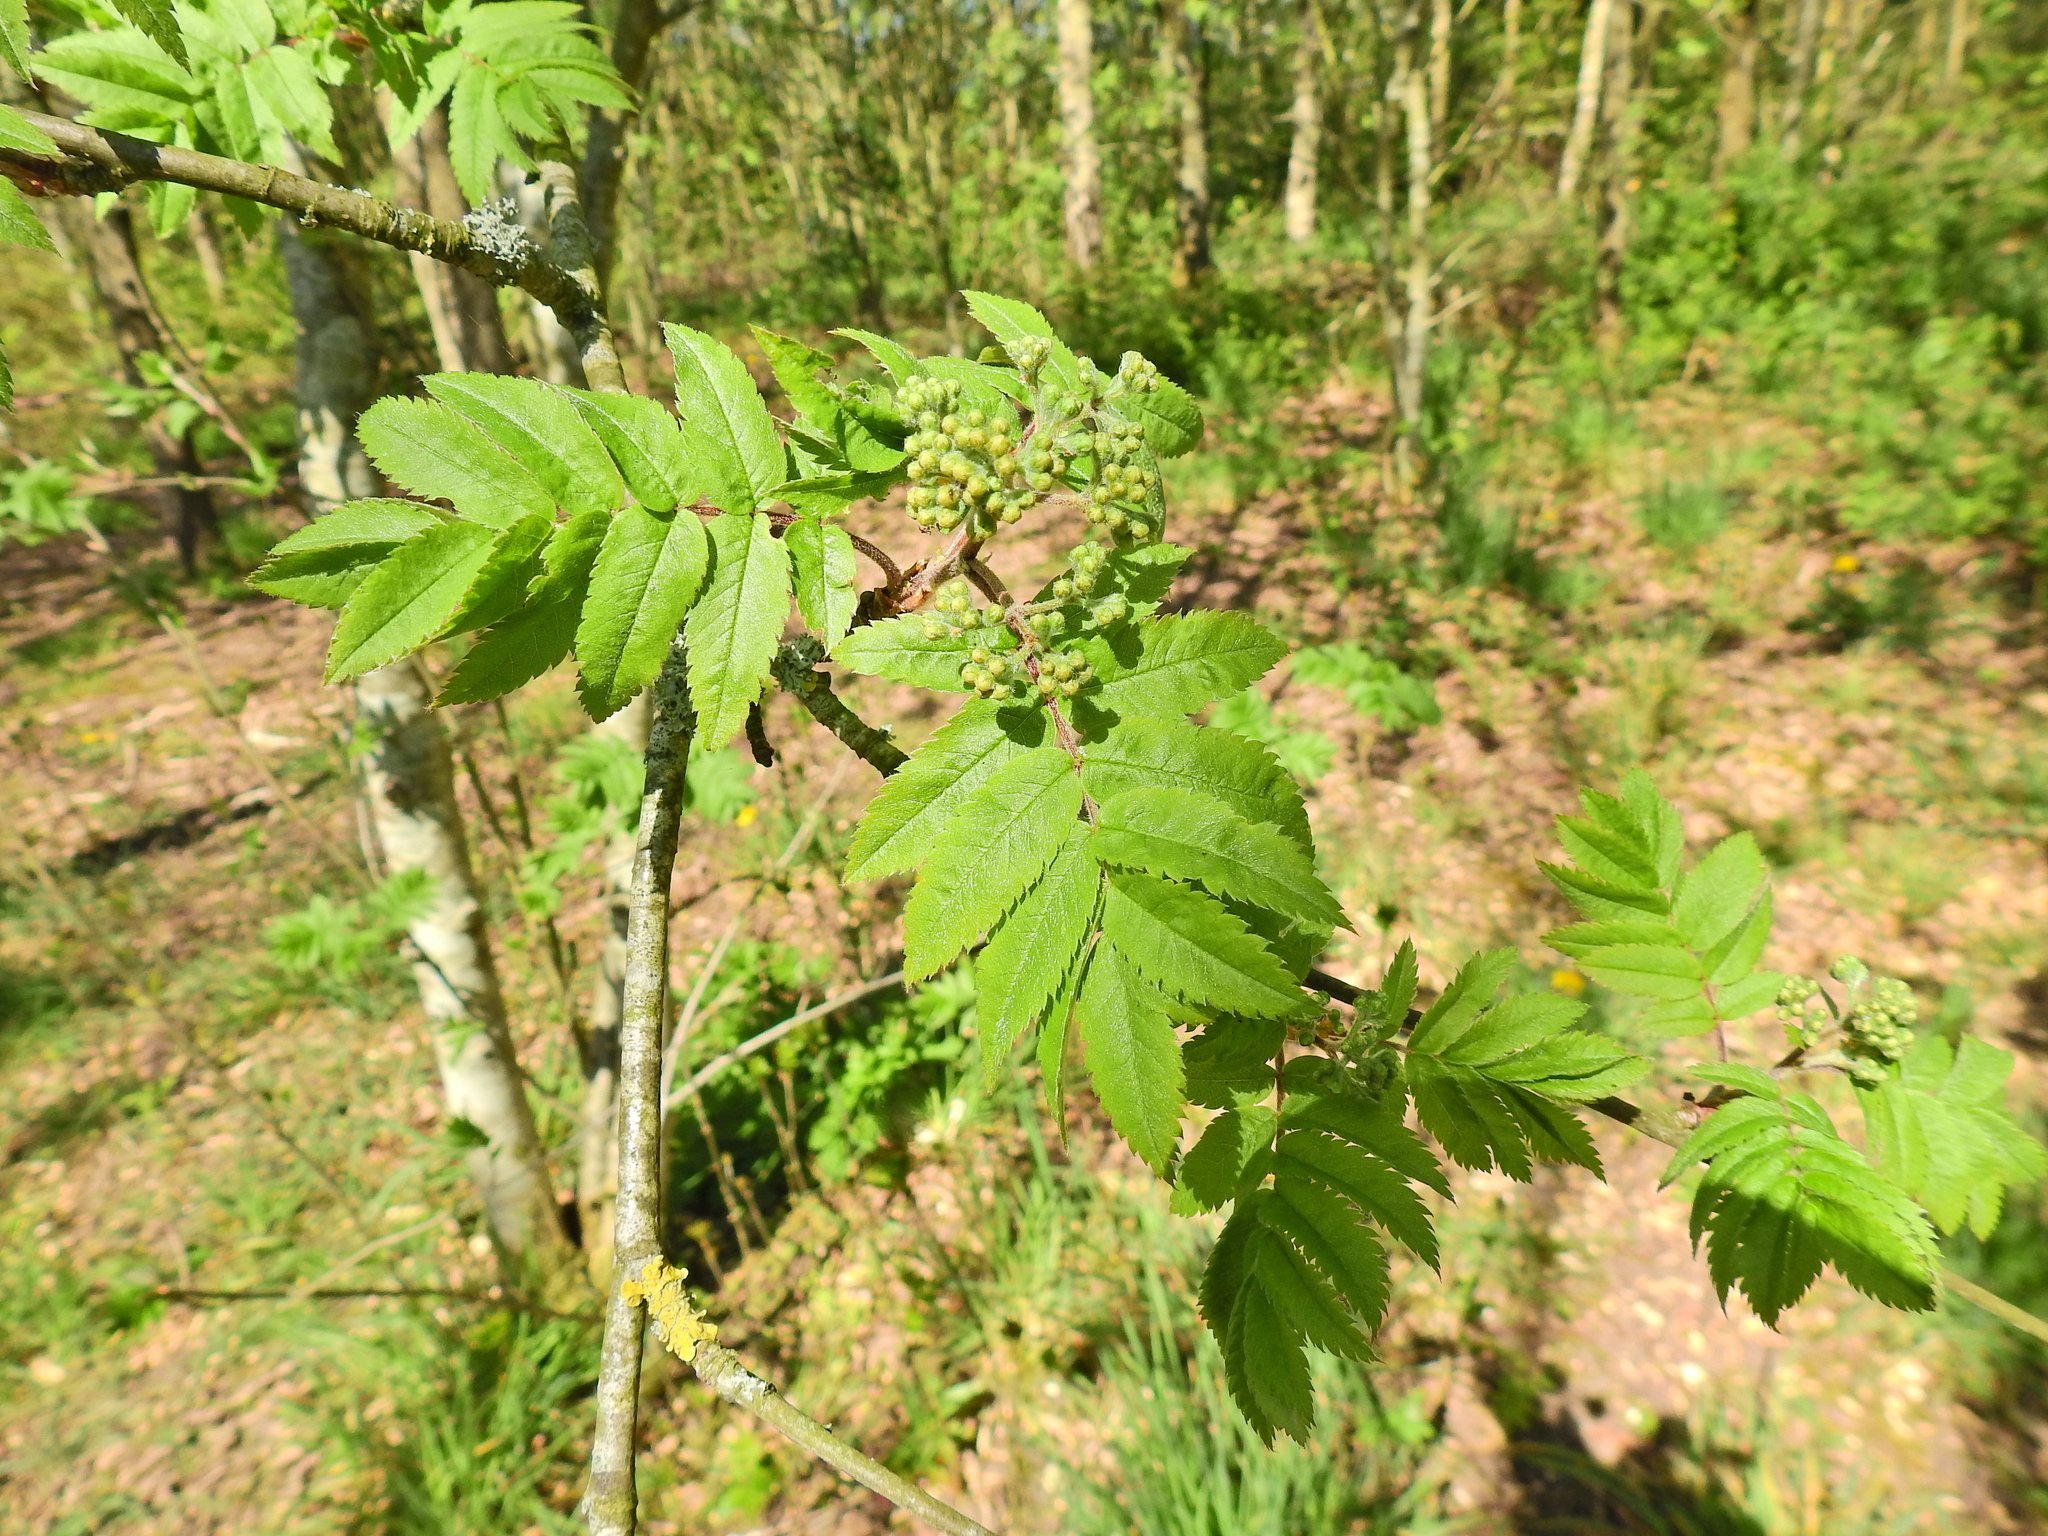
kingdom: Plantae
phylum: Tracheophyta
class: Magnoliopsida
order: Rosales
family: Rosaceae
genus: Sorbus
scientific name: Sorbus aucuparia
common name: Rowan
